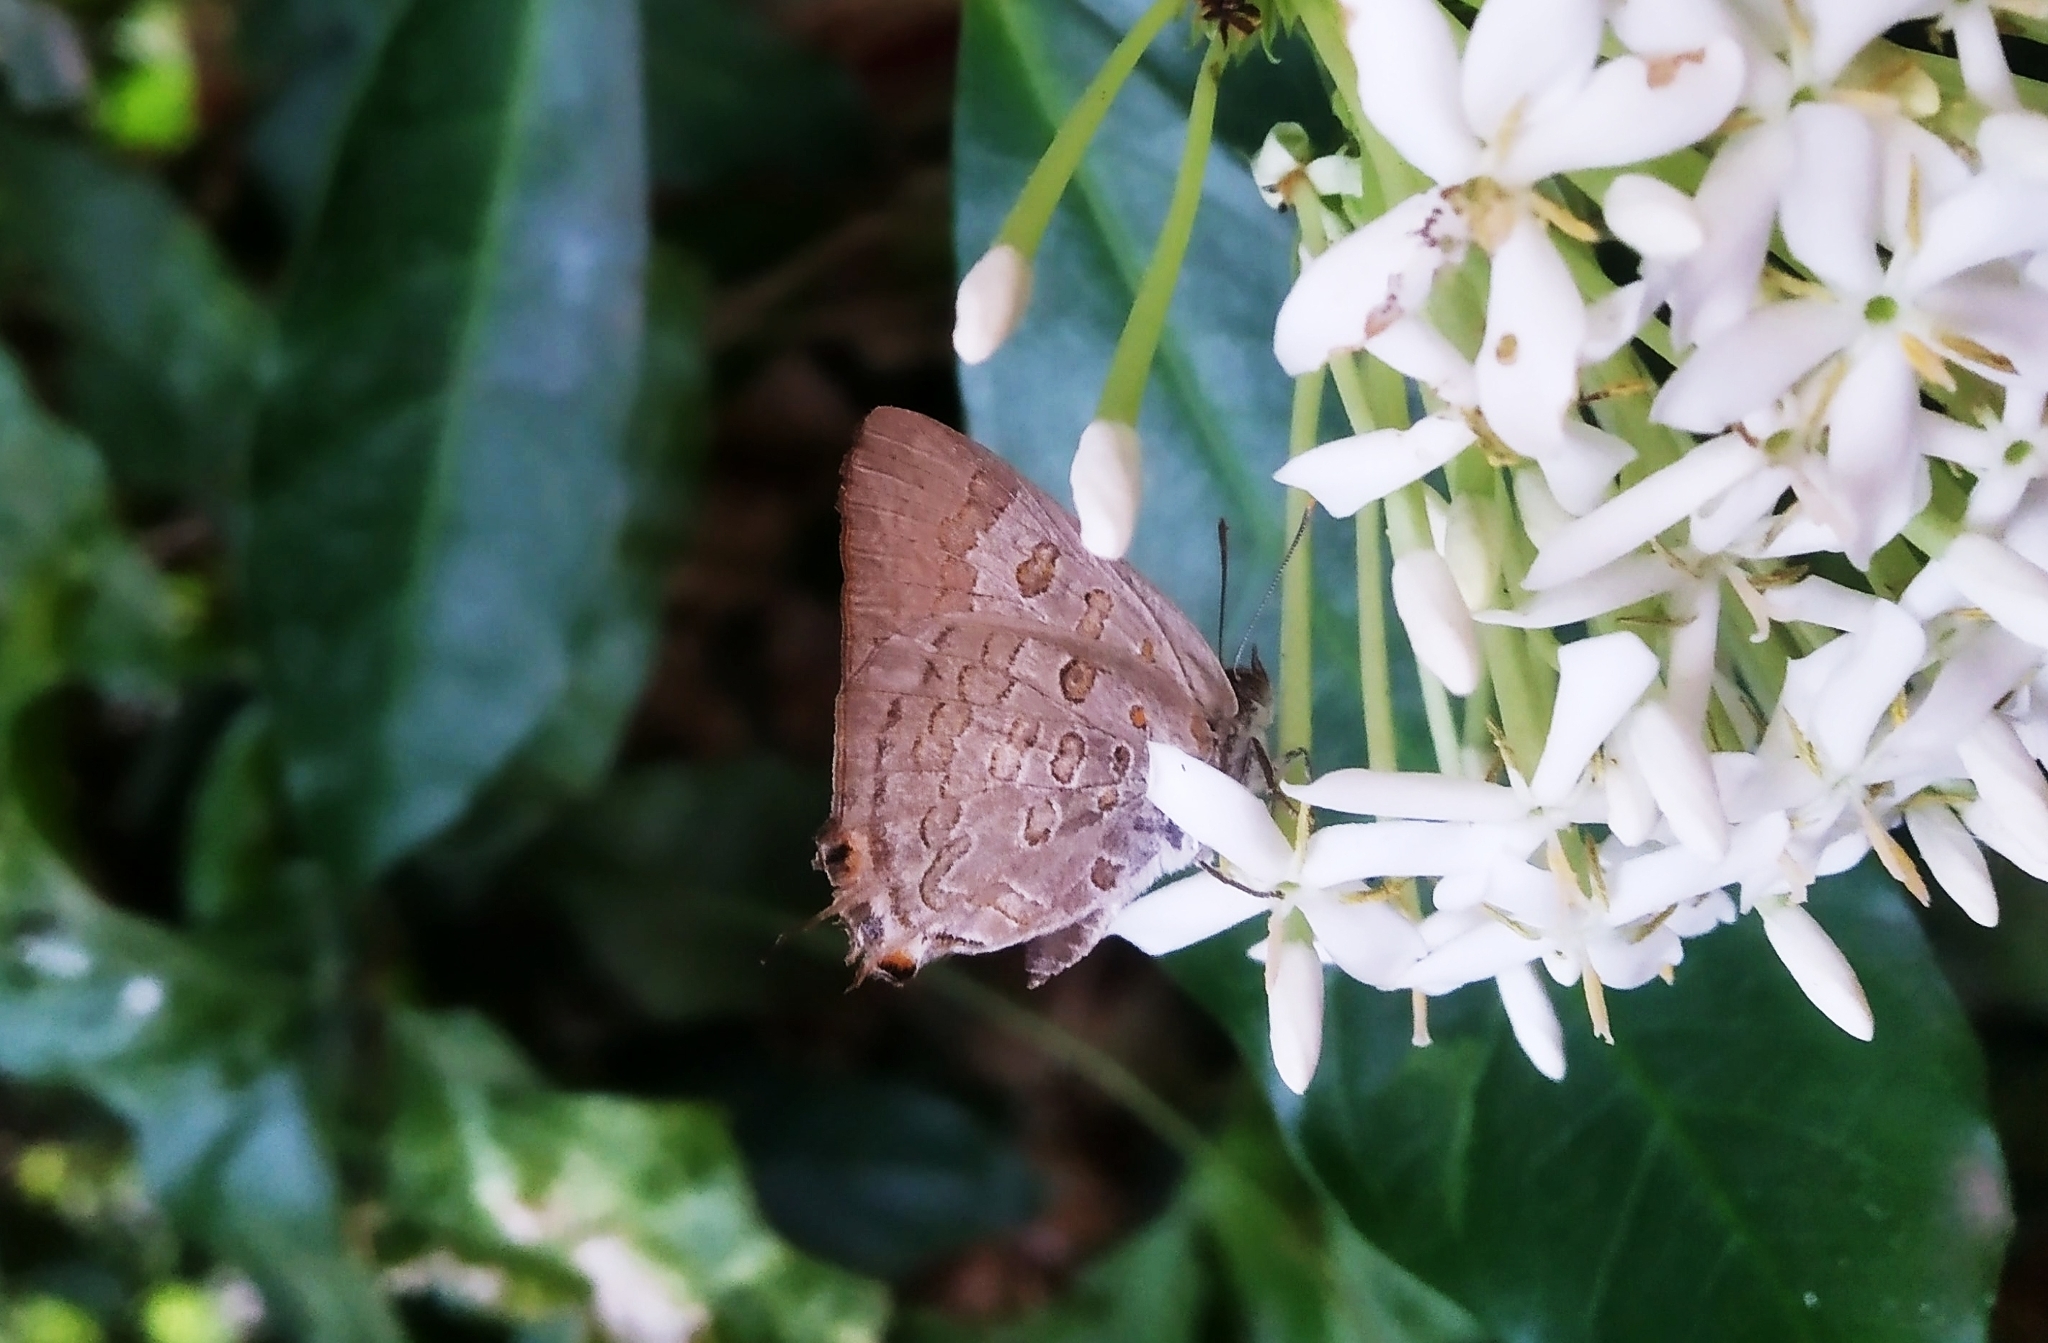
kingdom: Animalia
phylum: Arthropoda
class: Insecta
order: Lepidoptera
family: Lycaenidae
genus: Zesius
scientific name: Zesius chrysomallus
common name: Redspot
